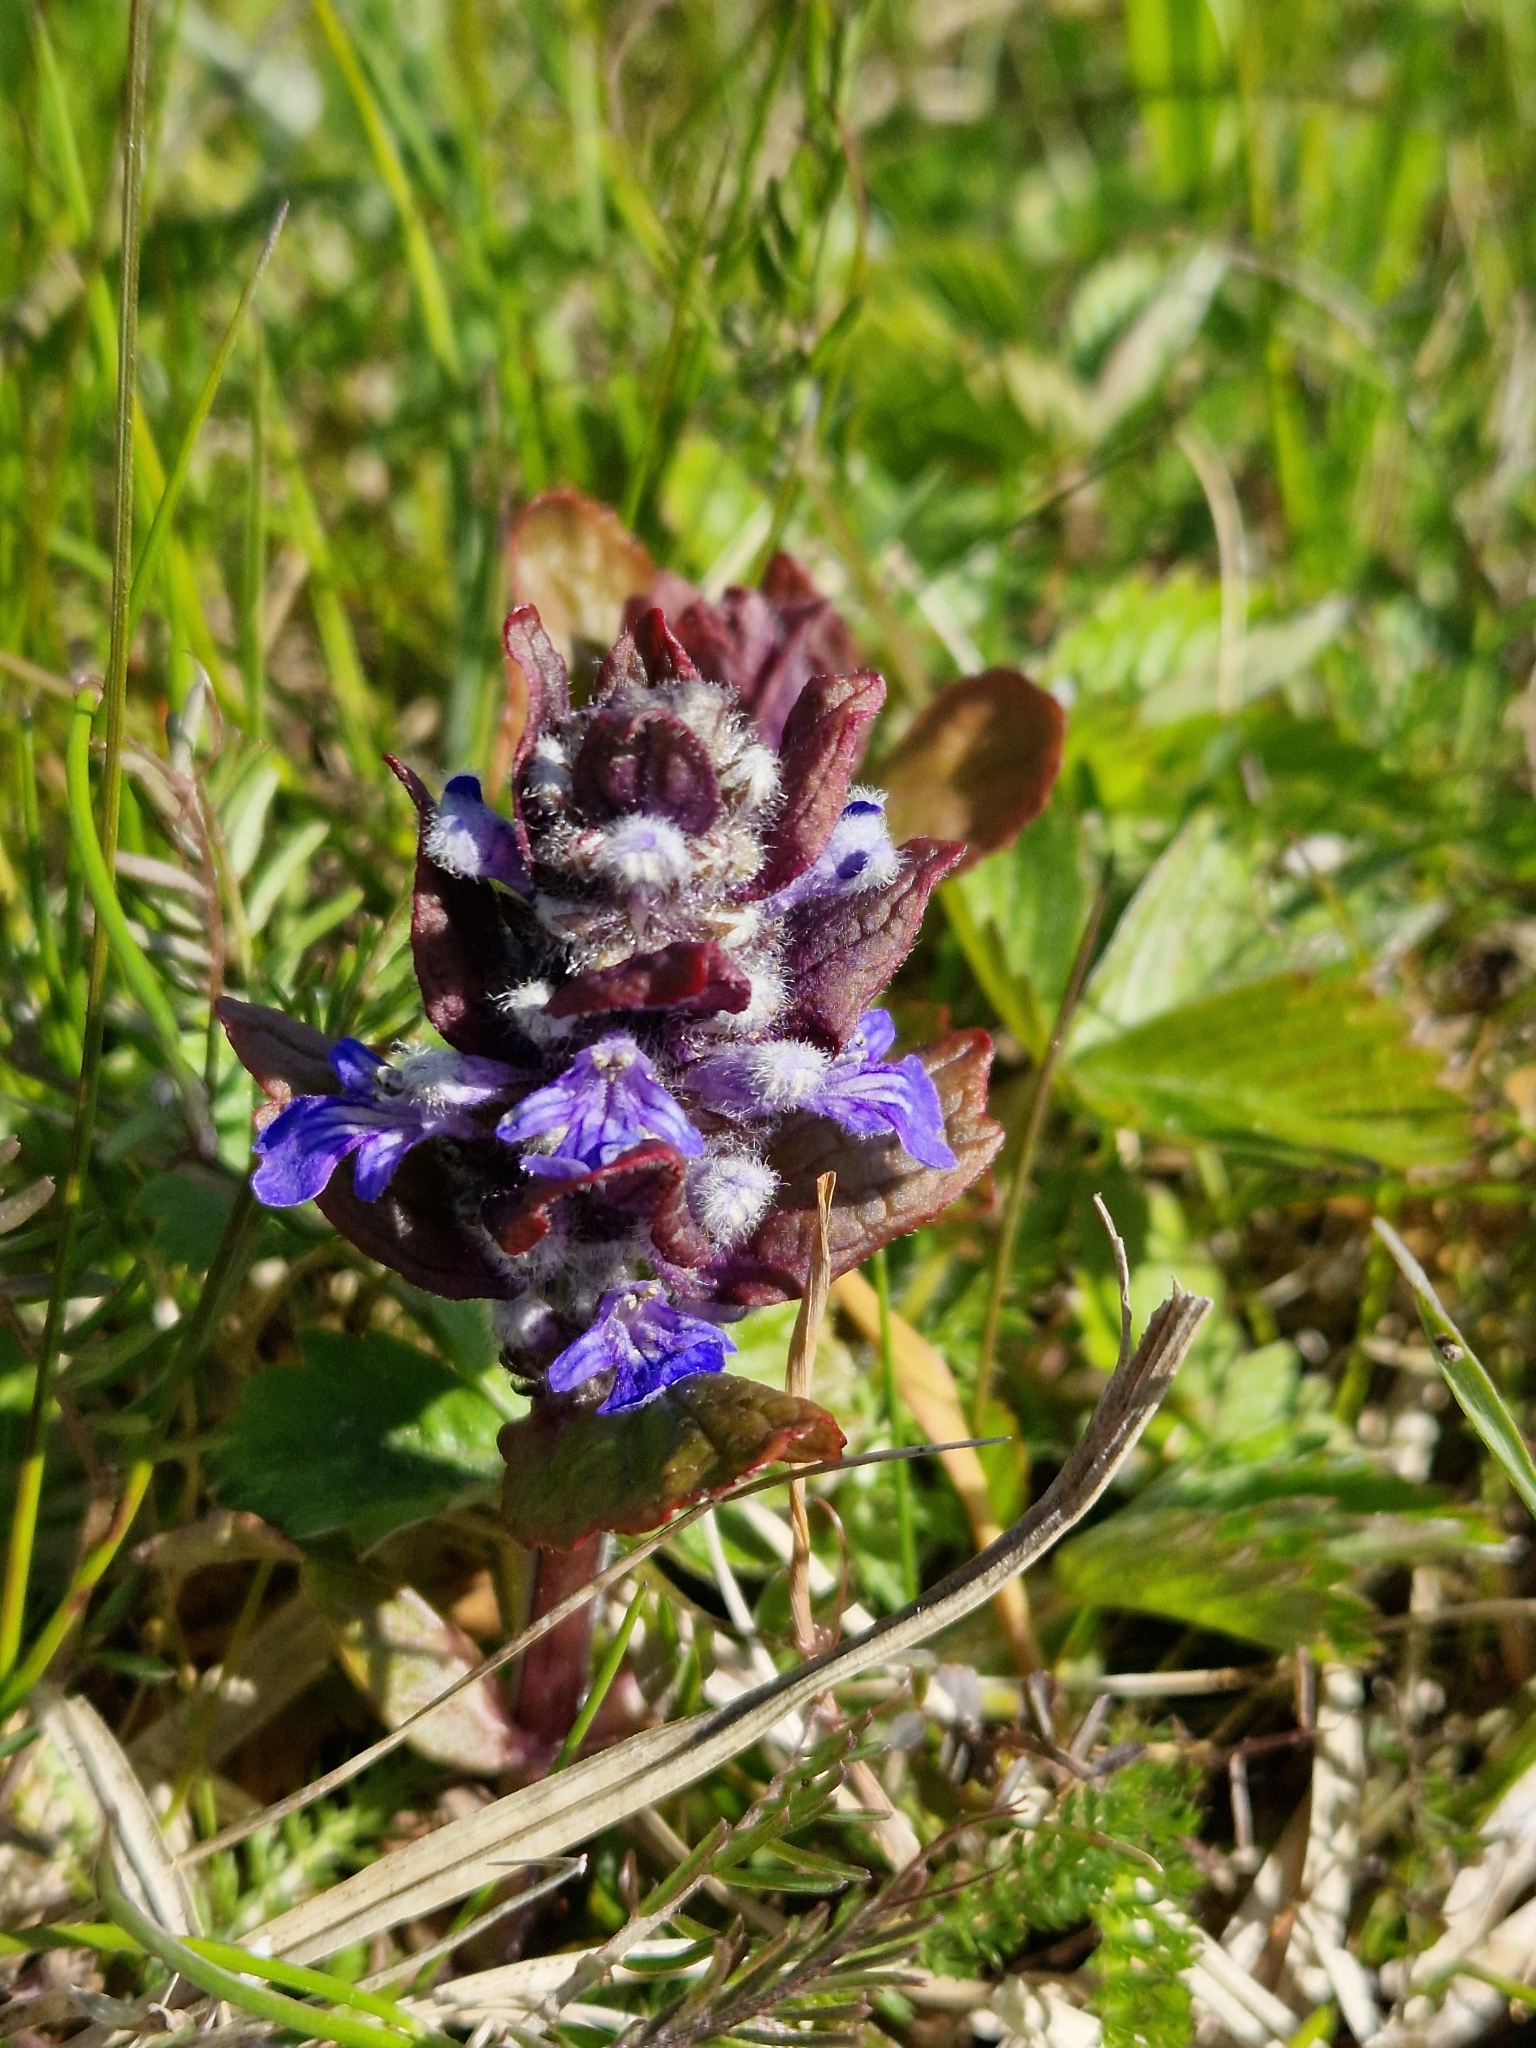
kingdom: Plantae
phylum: Tracheophyta
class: Magnoliopsida
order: Lamiales
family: Lamiaceae
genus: Ajuga
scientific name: Ajuga reptans
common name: Bugle
